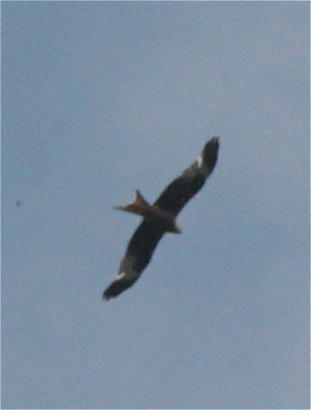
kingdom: Animalia
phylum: Chordata
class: Aves
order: Accipitriformes
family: Accipitridae
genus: Milvus
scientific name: Milvus milvus
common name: Red kite
